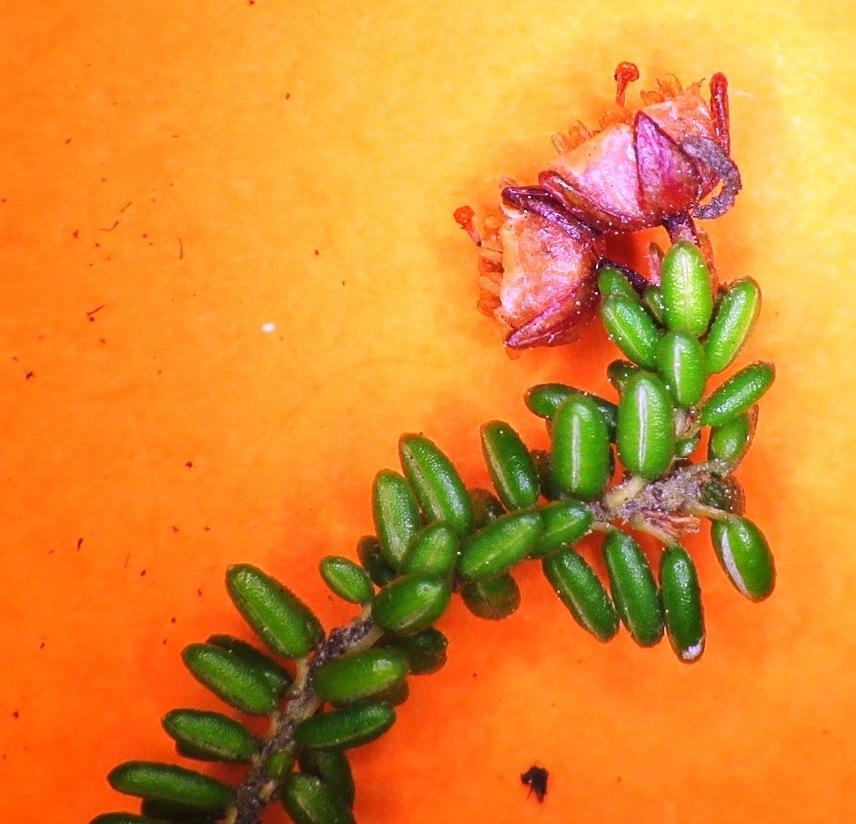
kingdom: Plantae
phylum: Tracheophyta
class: Magnoliopsida
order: Ericales
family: Ericaceae
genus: Erica
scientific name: Erica petrophila
